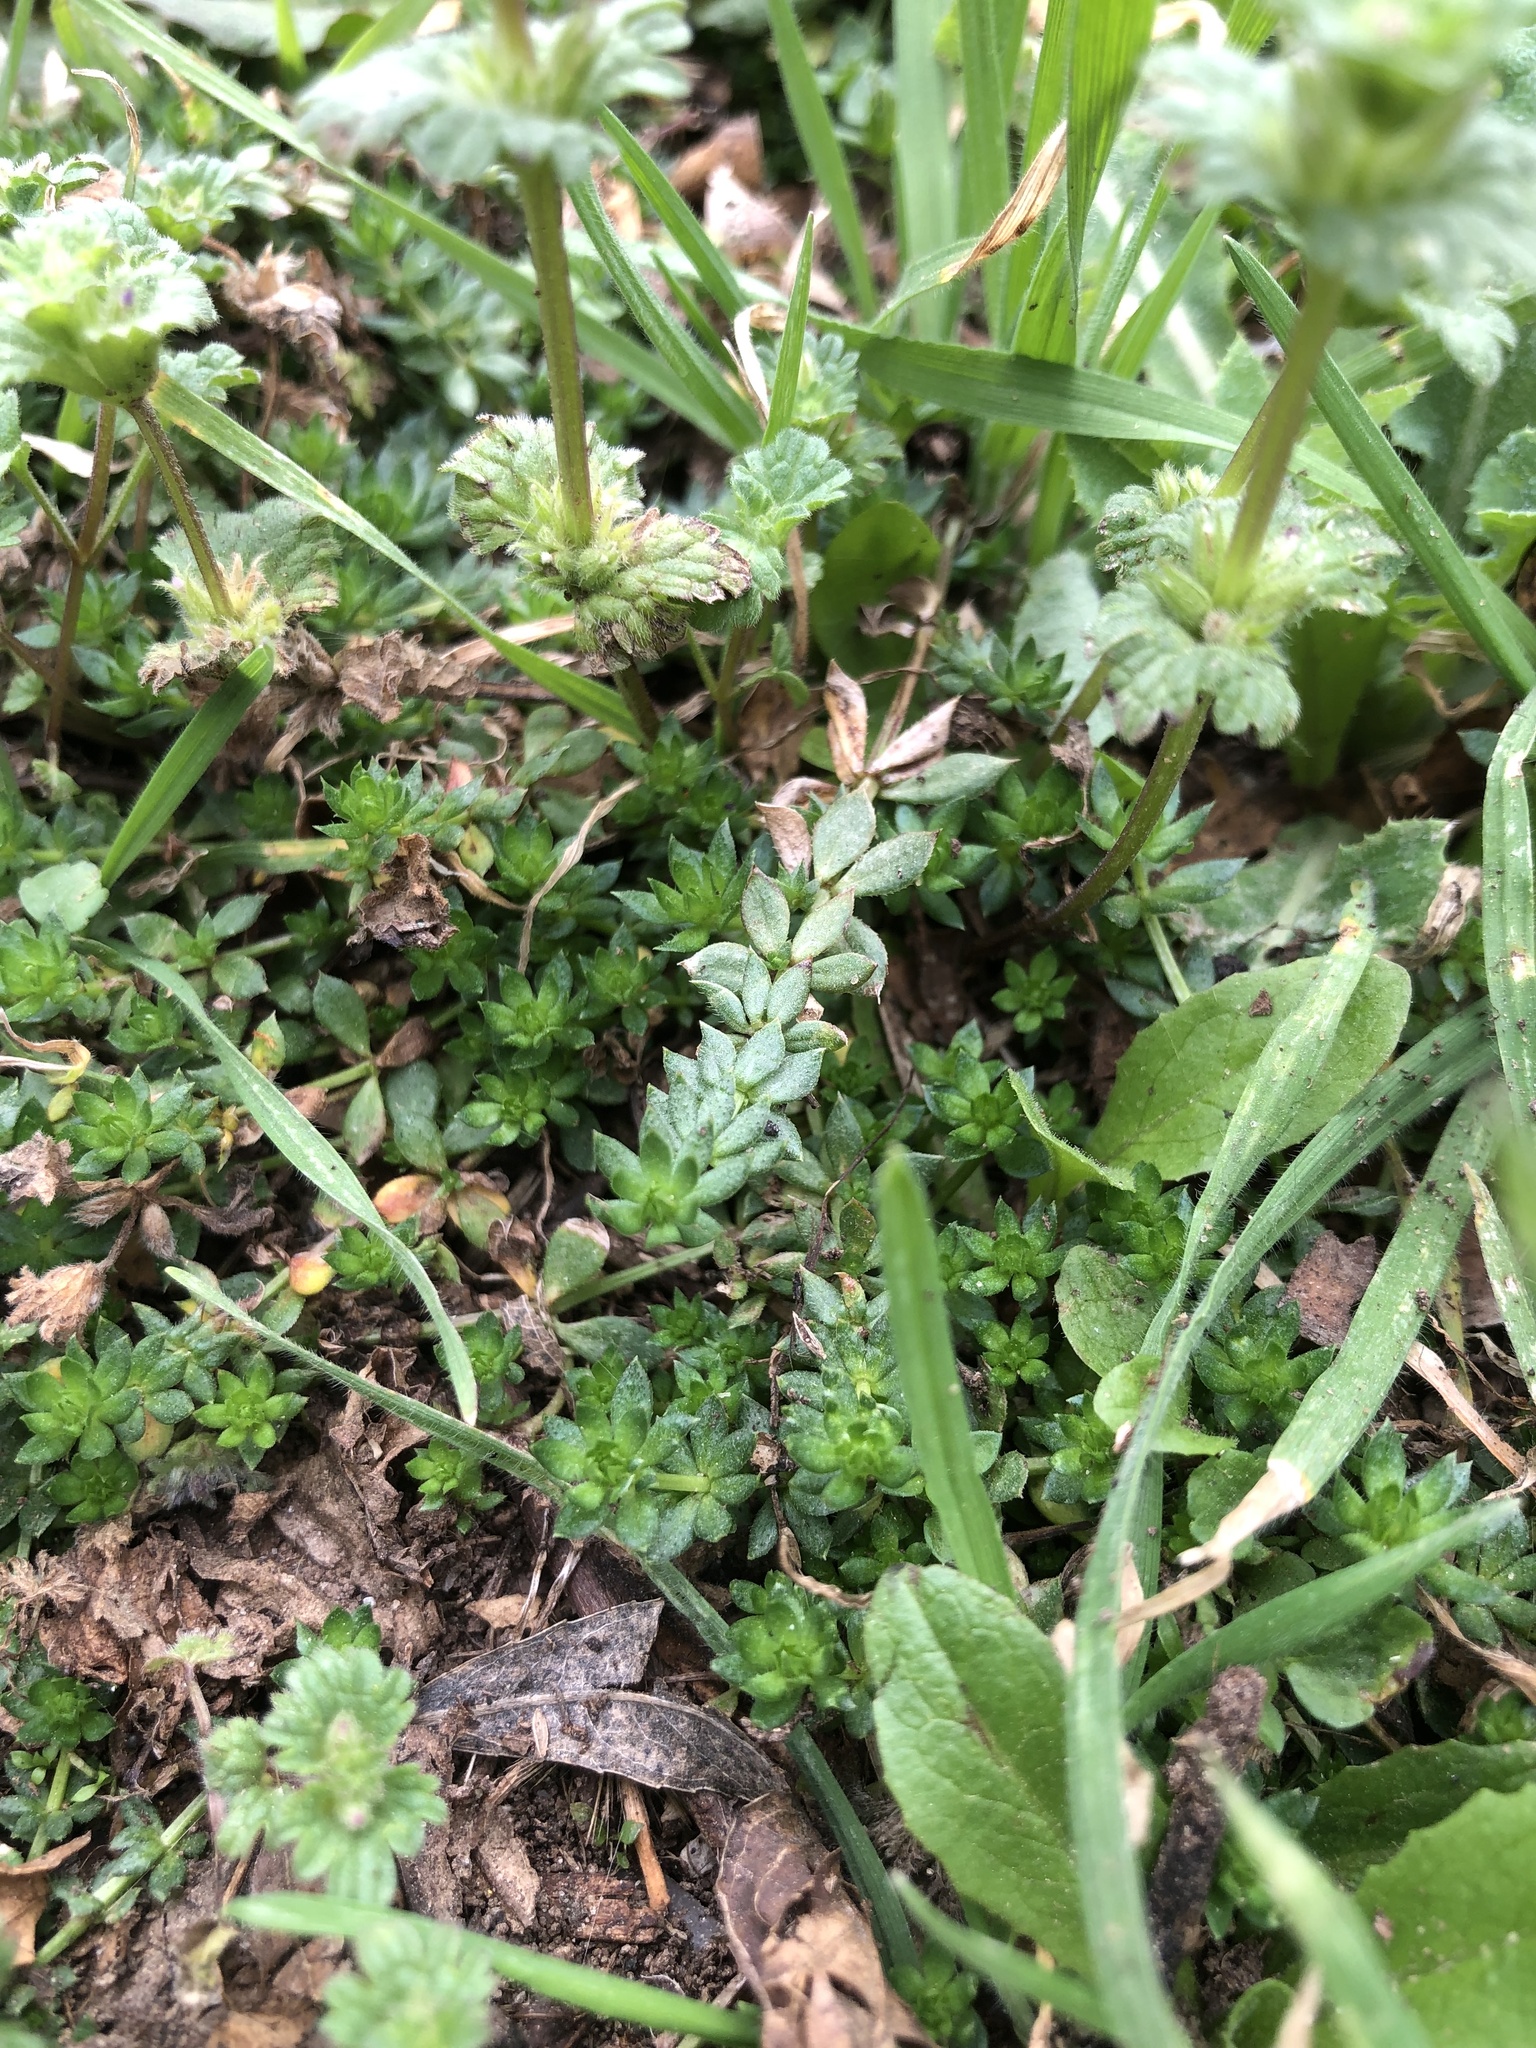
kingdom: Plantae
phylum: Tracheophyta
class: Magnoliopsida
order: Gentianales
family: Rubiaceae
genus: Sherardia
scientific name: Sherardia arvensis
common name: Field madder
